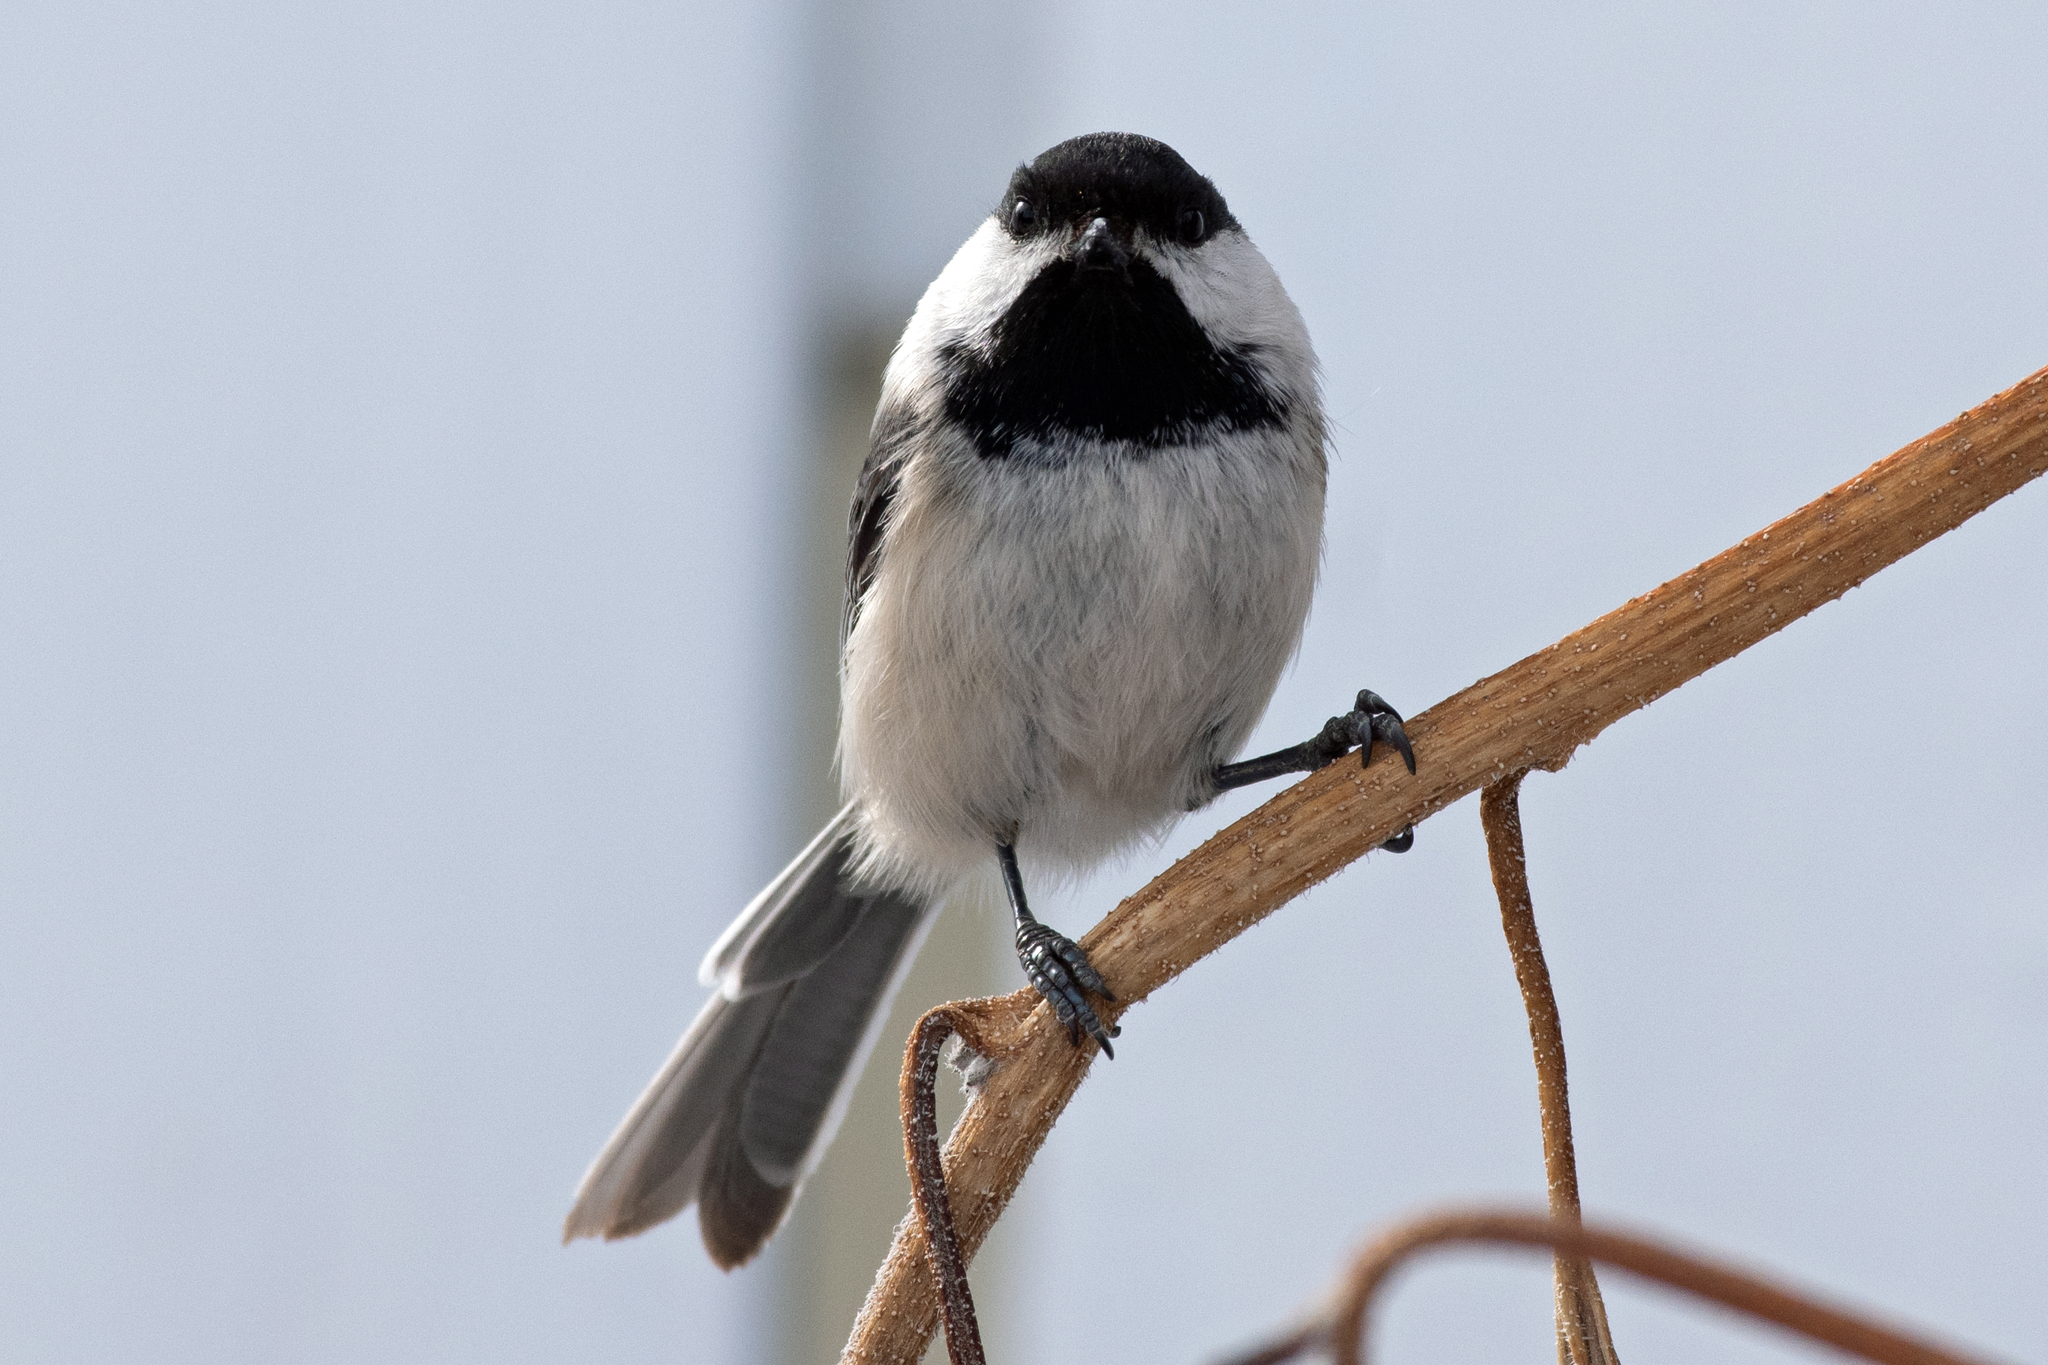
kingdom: Animalia
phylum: Chordata
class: Aves
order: Passeriformes
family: Paridae
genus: Poecile
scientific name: Poecile atricapillus
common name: Black-capped chickadee
